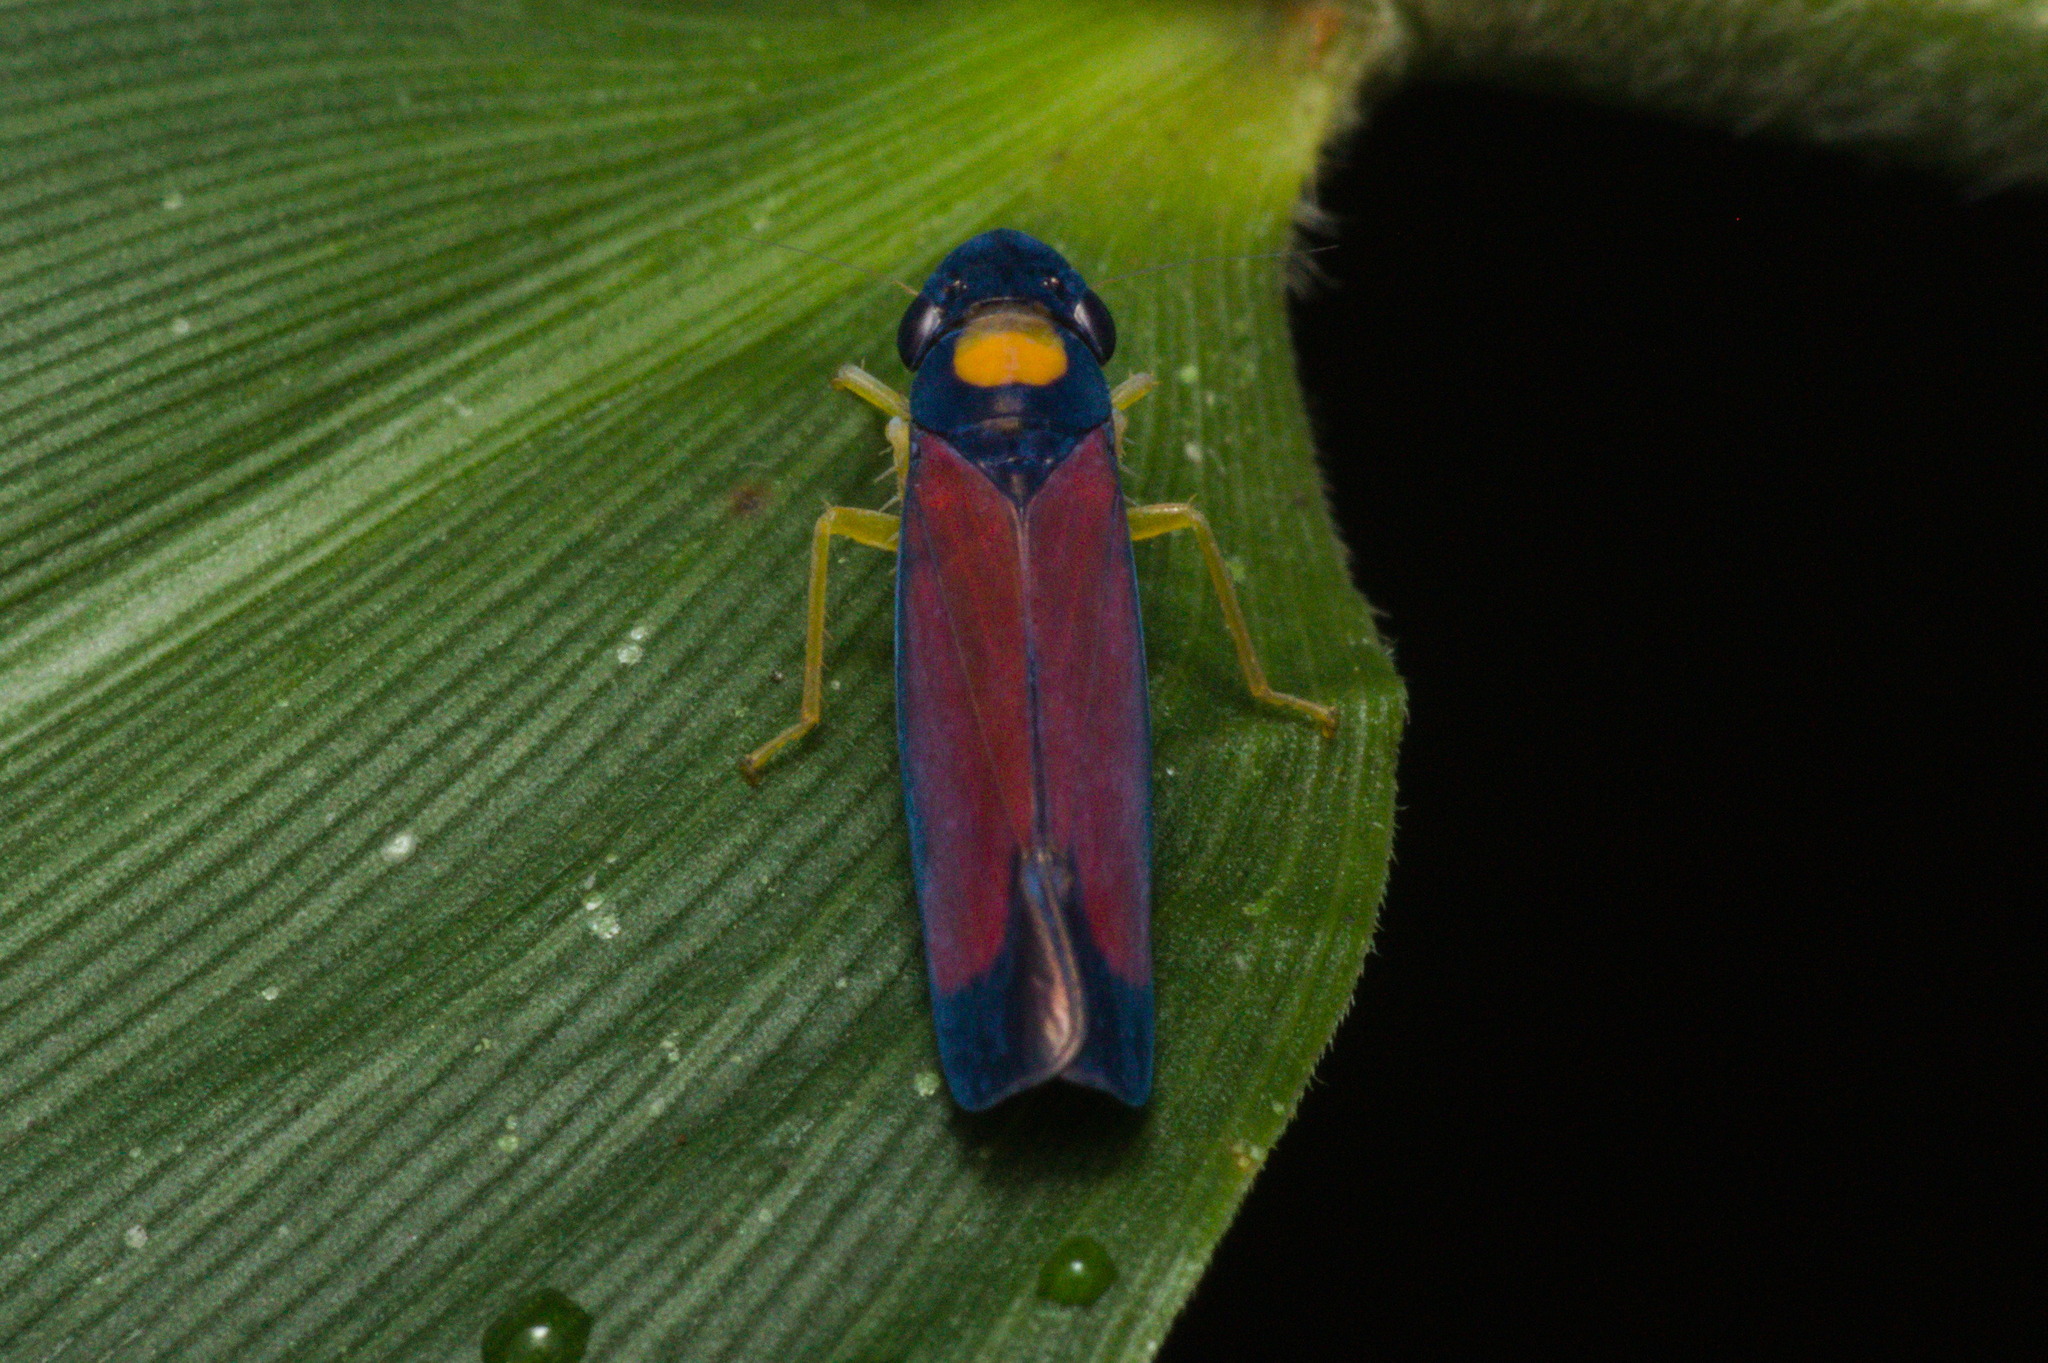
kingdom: Animalia
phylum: Arthropoda
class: Insecta
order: Hemiptera
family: Cicadellidae
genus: Erythrogonia
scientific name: Erythrogonia victori
